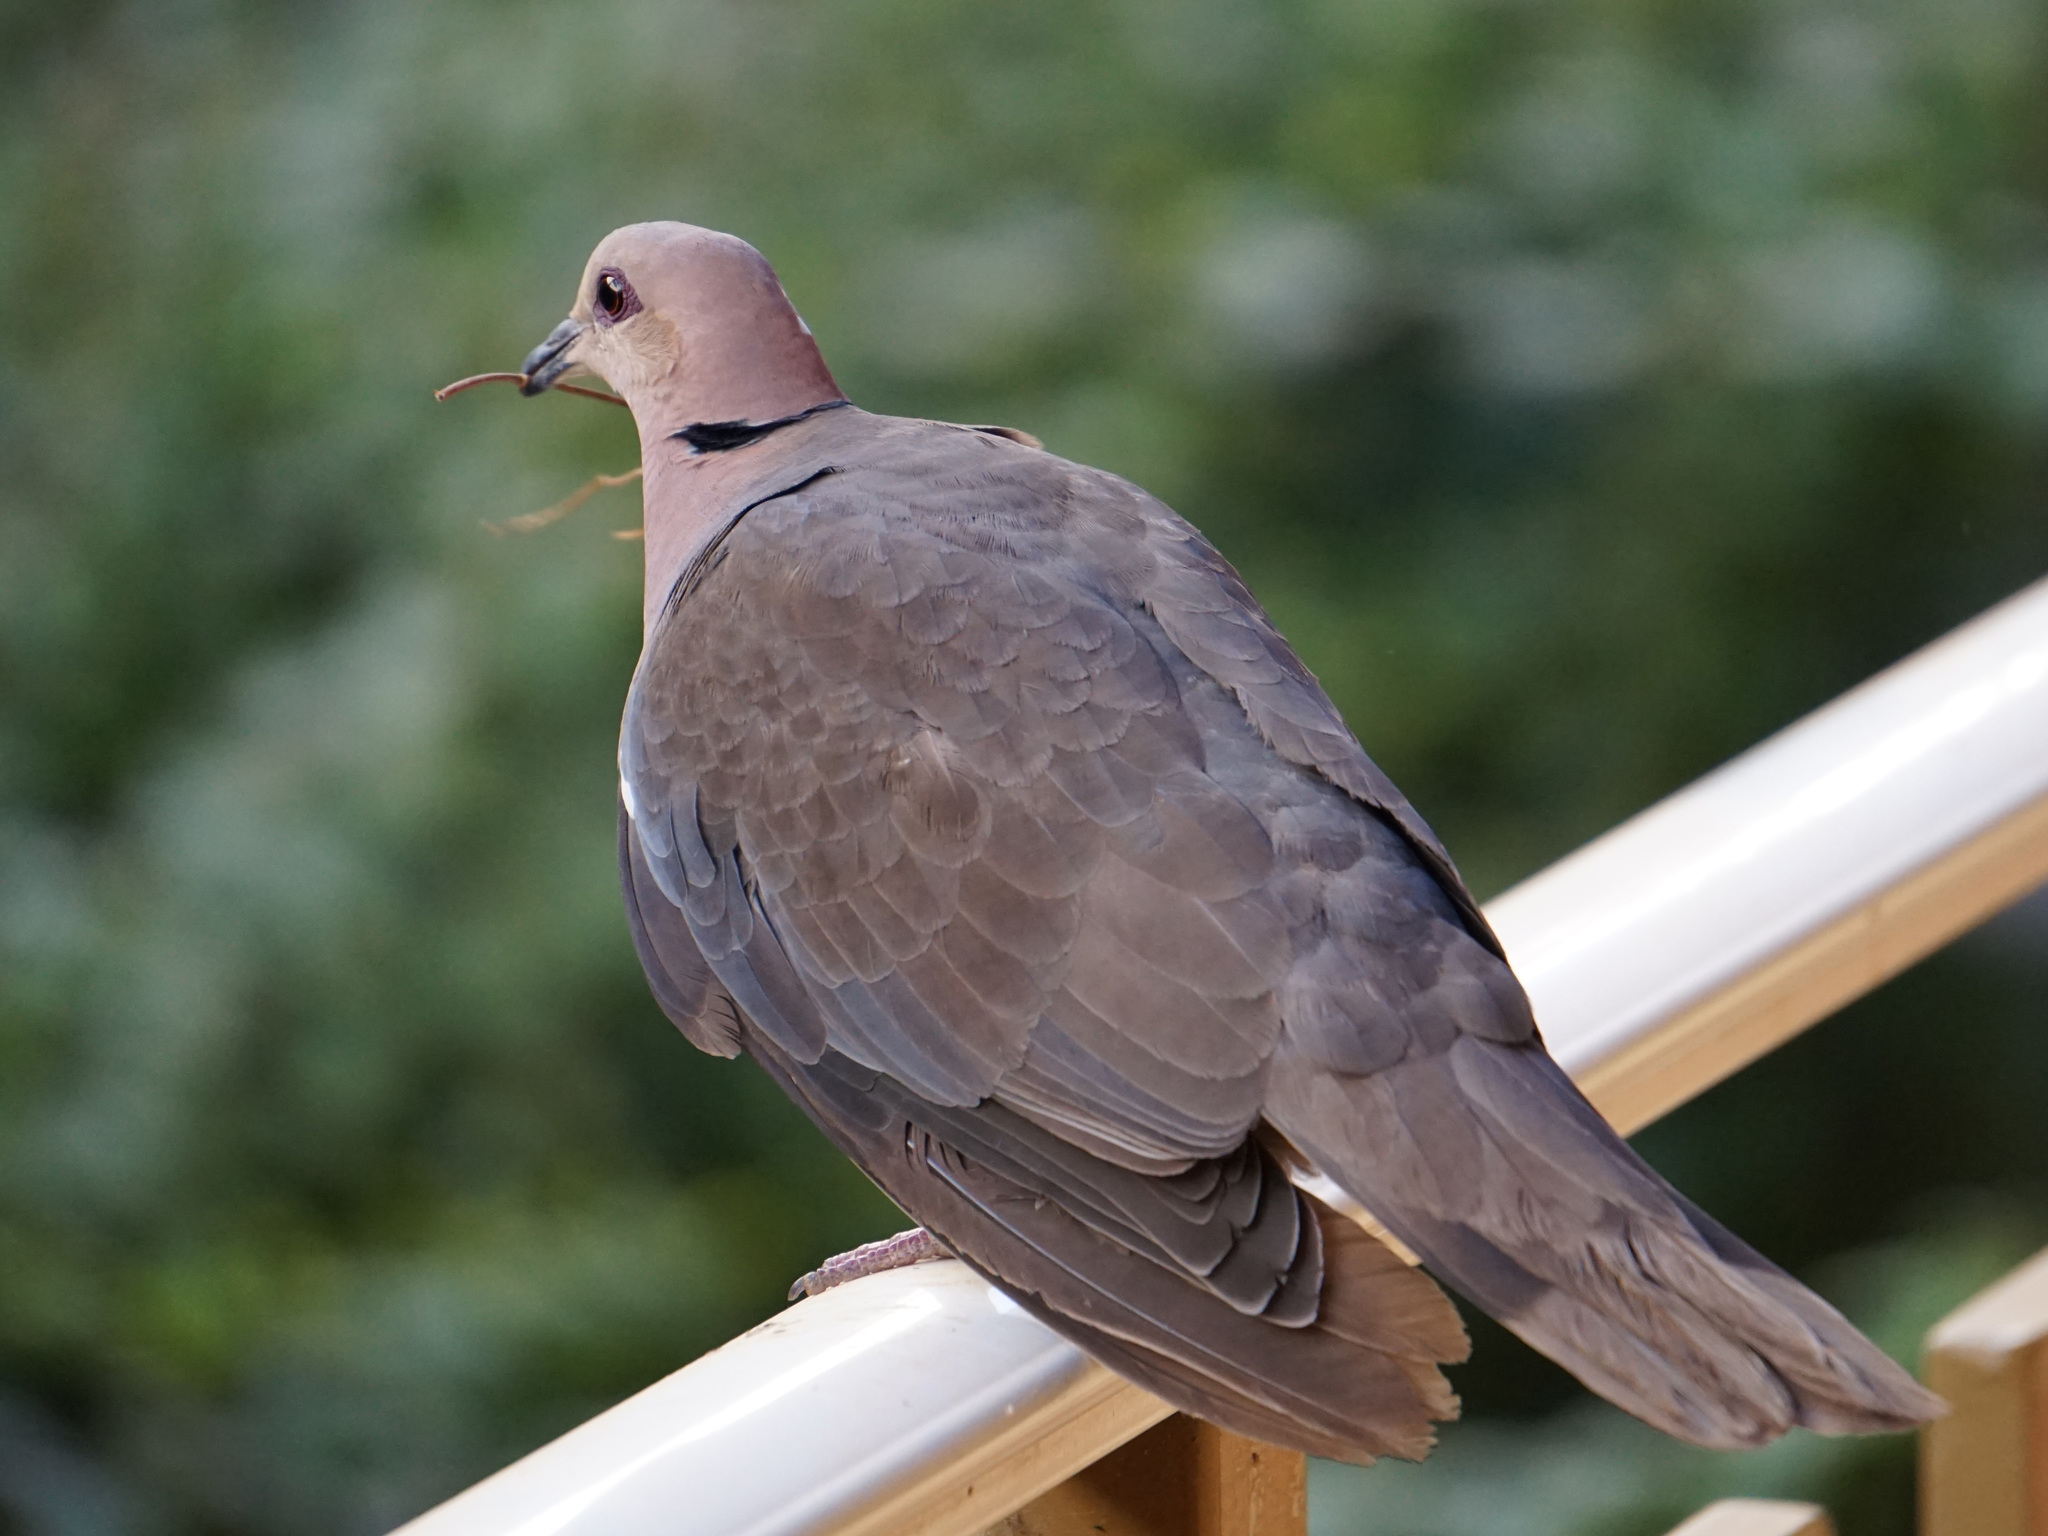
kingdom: Animalia
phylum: Chordata
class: Aves
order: Columbiformes
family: Columbidae
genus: Streptopelia
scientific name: Streptopelia semitorquata
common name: Red-eyed dove
